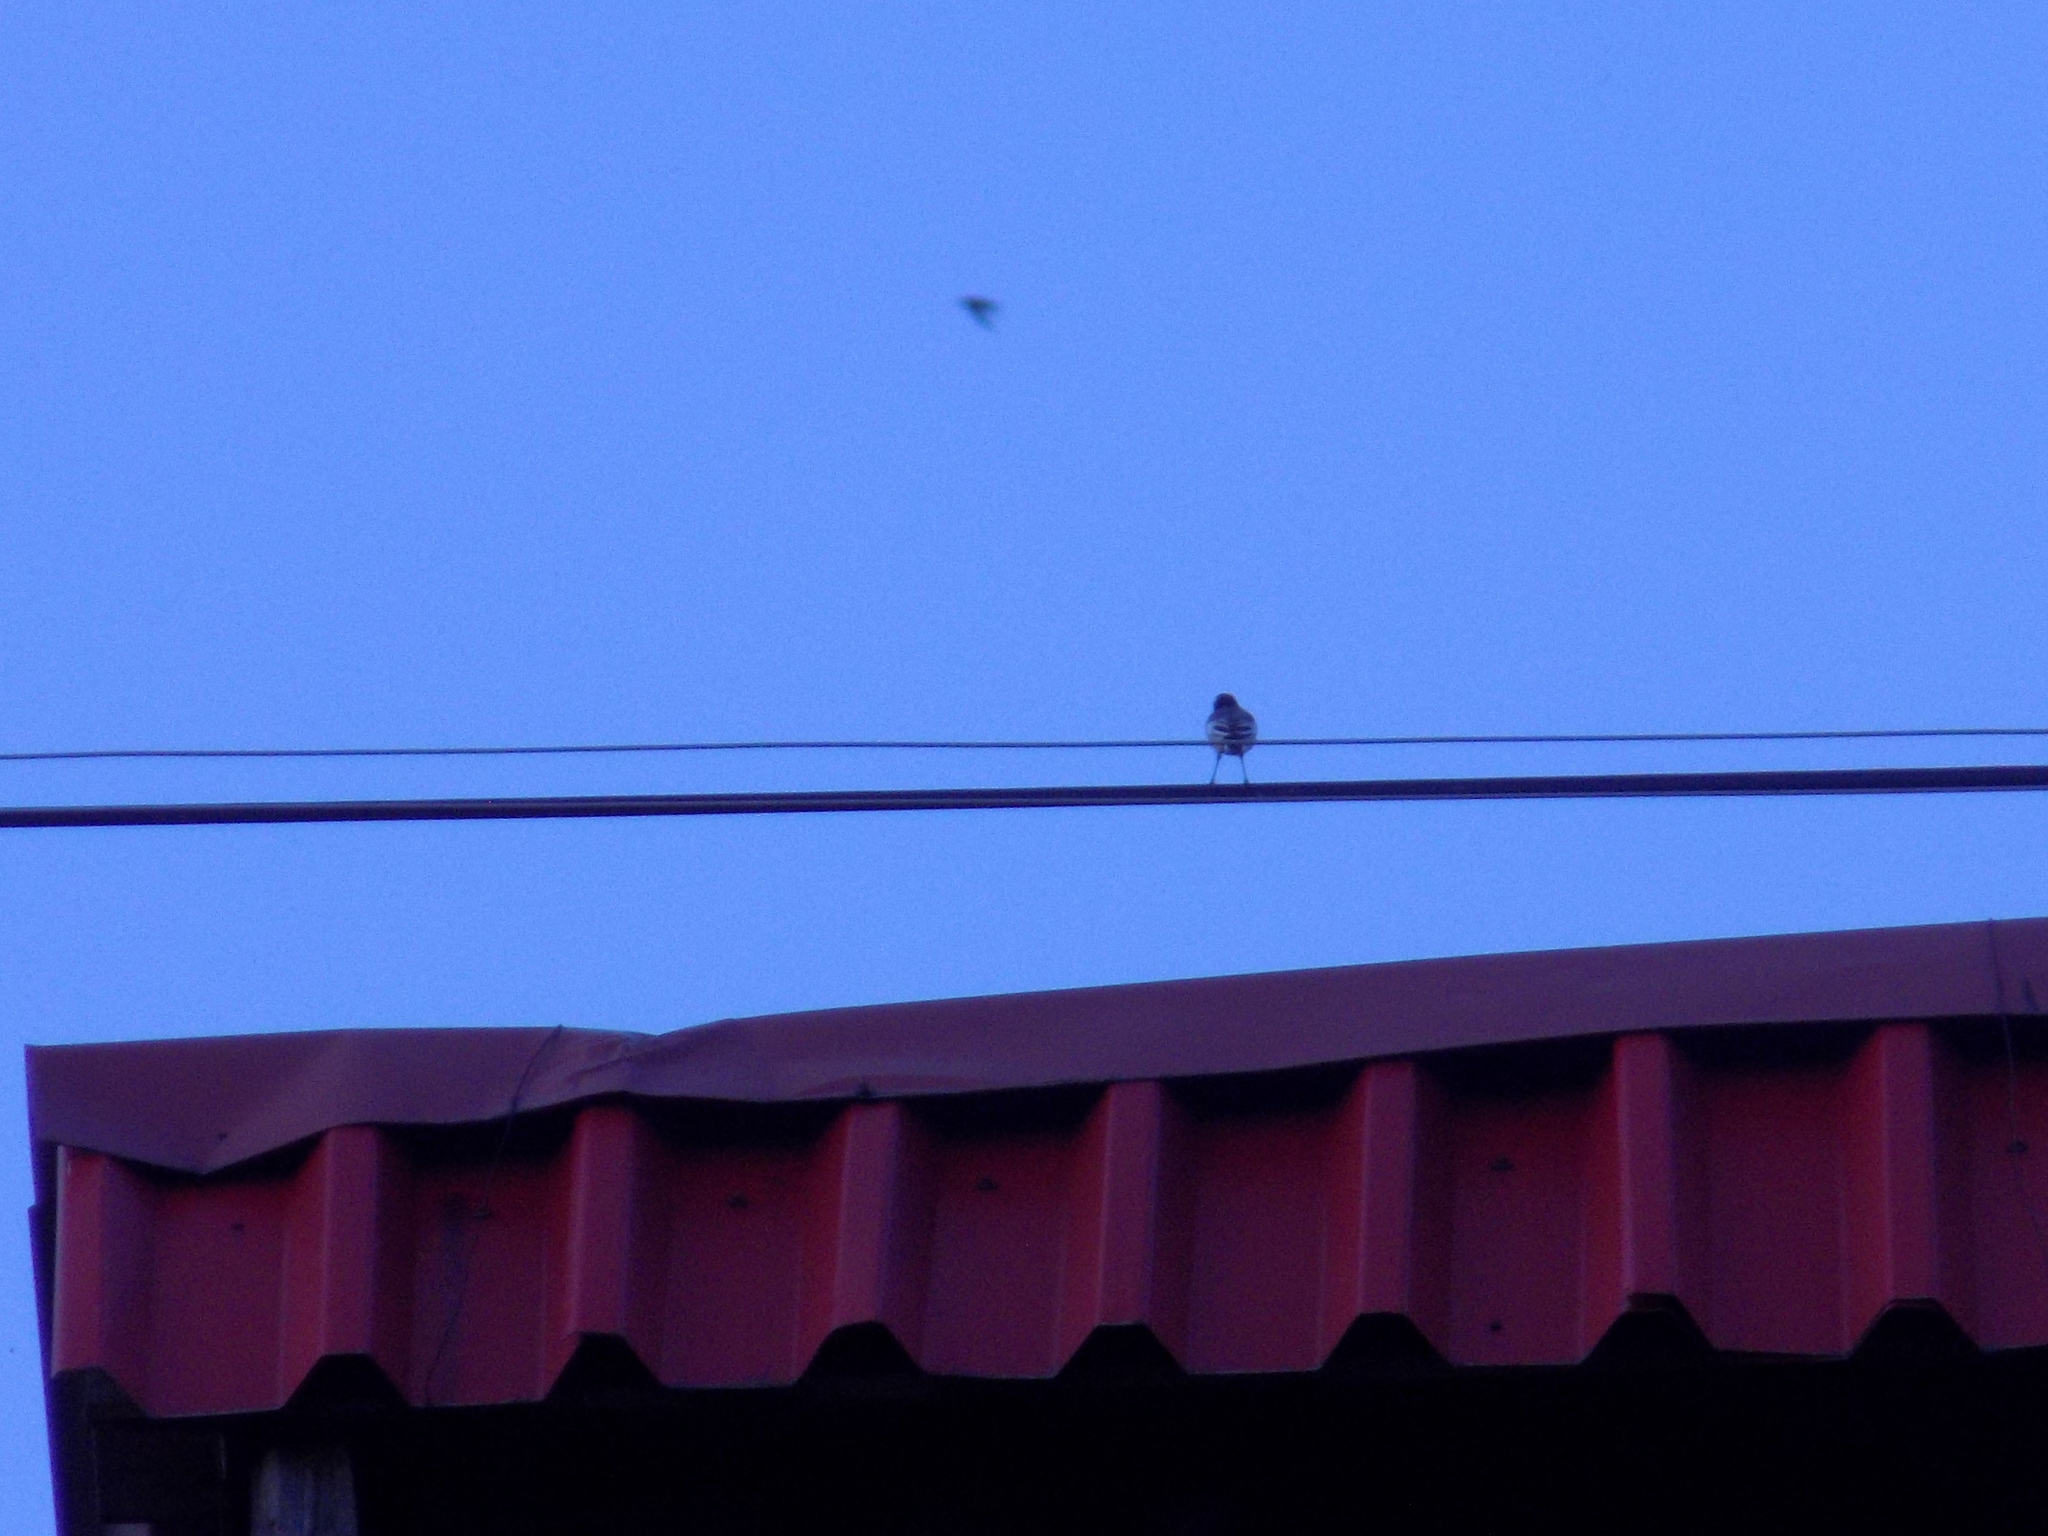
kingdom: Animalia
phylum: Chordata
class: Aves
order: Passeriformes
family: Motacillidae
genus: Motacilla
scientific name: Motacilla alba
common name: White wagtail
